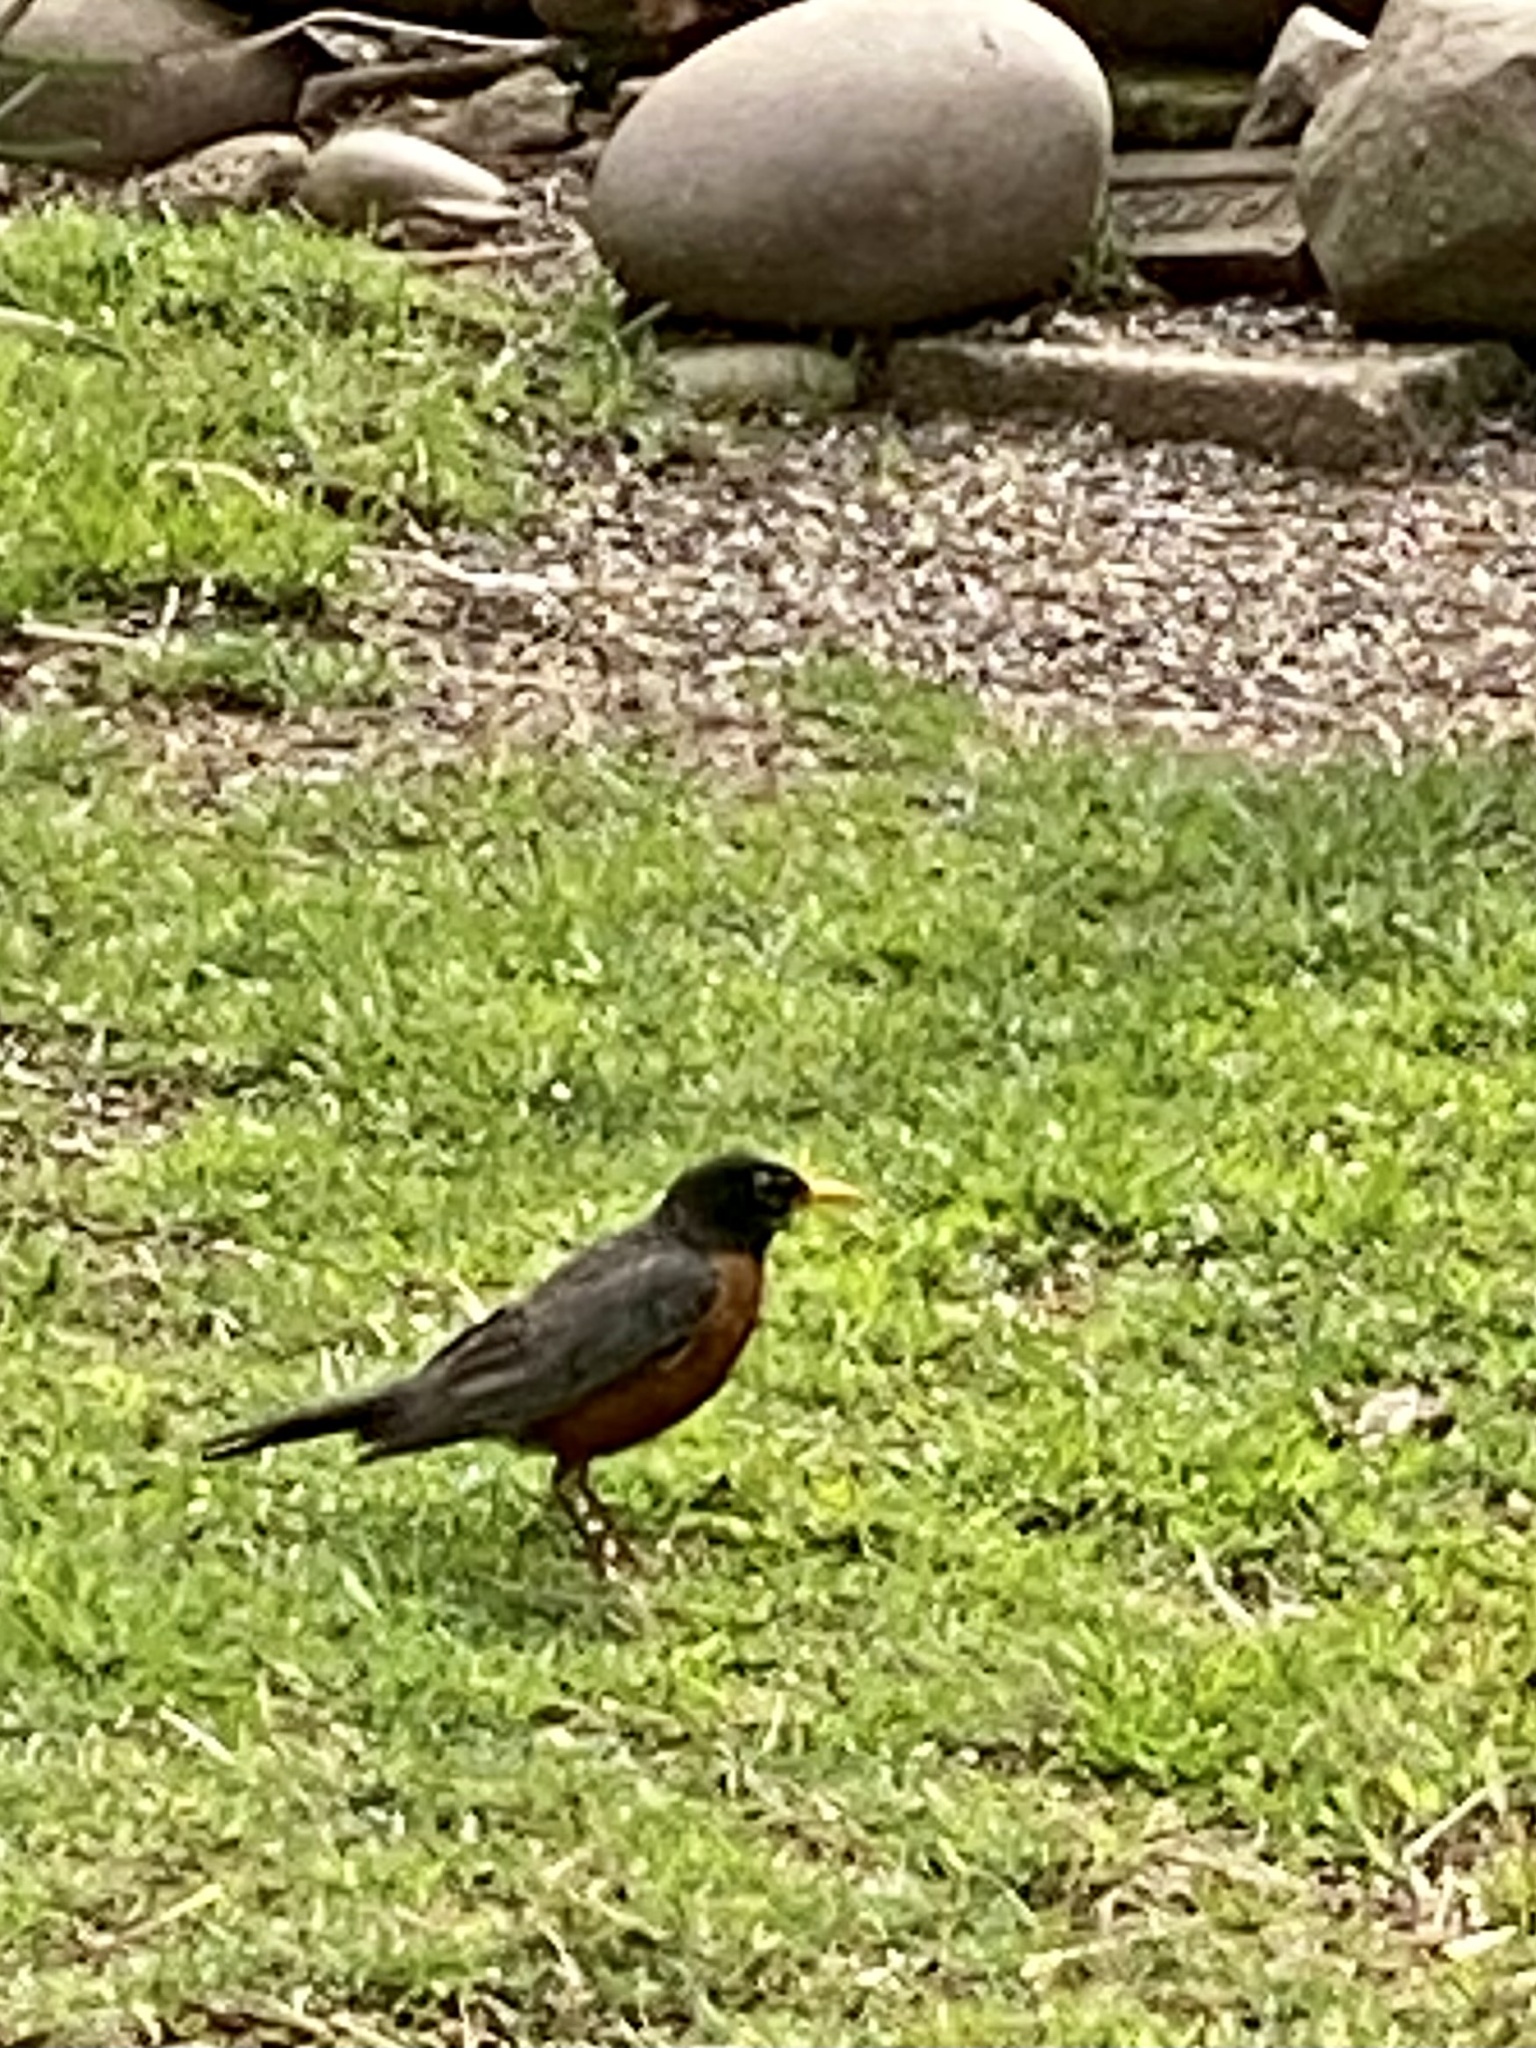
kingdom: Animalia
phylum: Chordata
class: Aves
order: Passeriformes
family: Turdidae
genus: Turdus
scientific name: Turdus migratorius
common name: American robin
